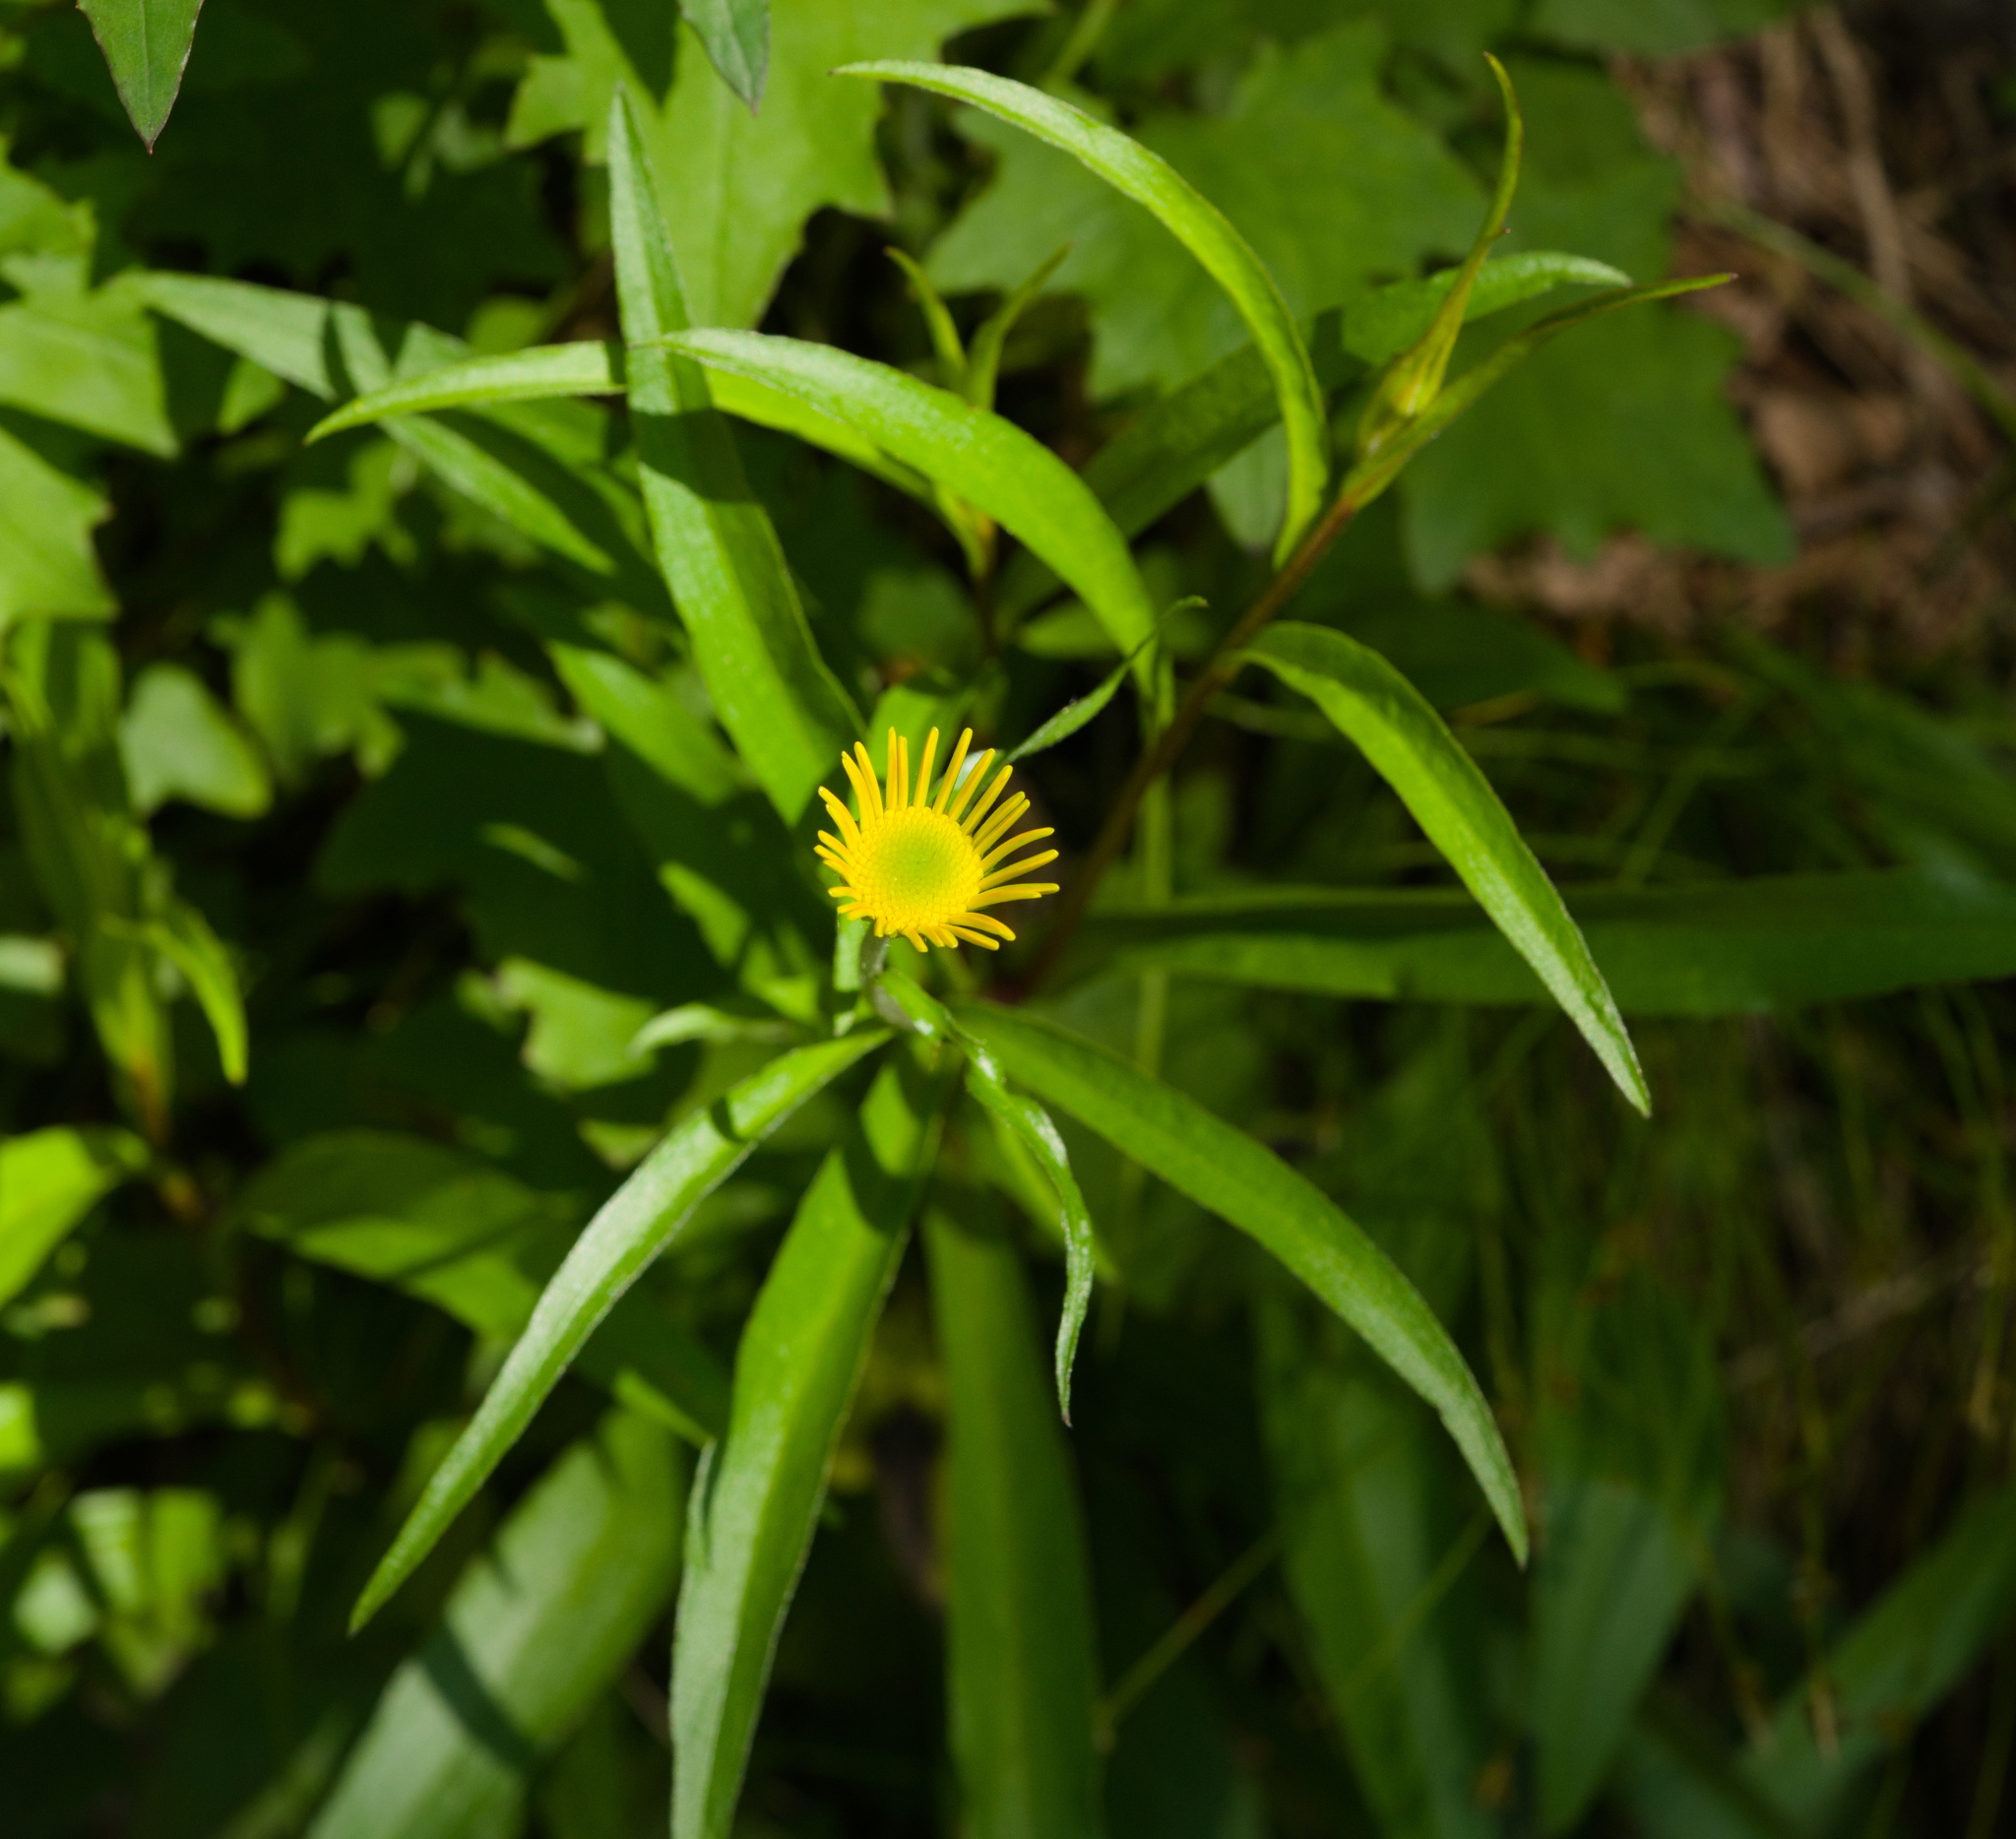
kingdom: Plantae
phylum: Tracheophyta
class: Magnoliopsida
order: Asterales
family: Asteraceae
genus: Buphthalmum
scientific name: Buphthalmum salicifolium
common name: Willow-leaved yellow-oxeye
